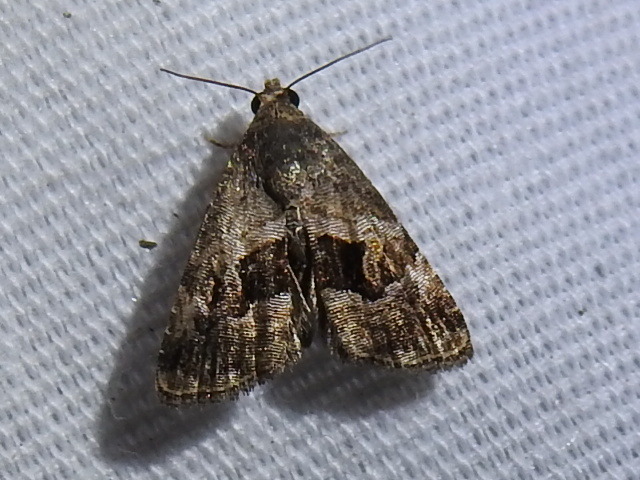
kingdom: Animalia
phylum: Arthropoda
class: Insecta
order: Lepidoptera
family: Noctuidae
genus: Tripudia
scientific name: Tripudia quadrifera
